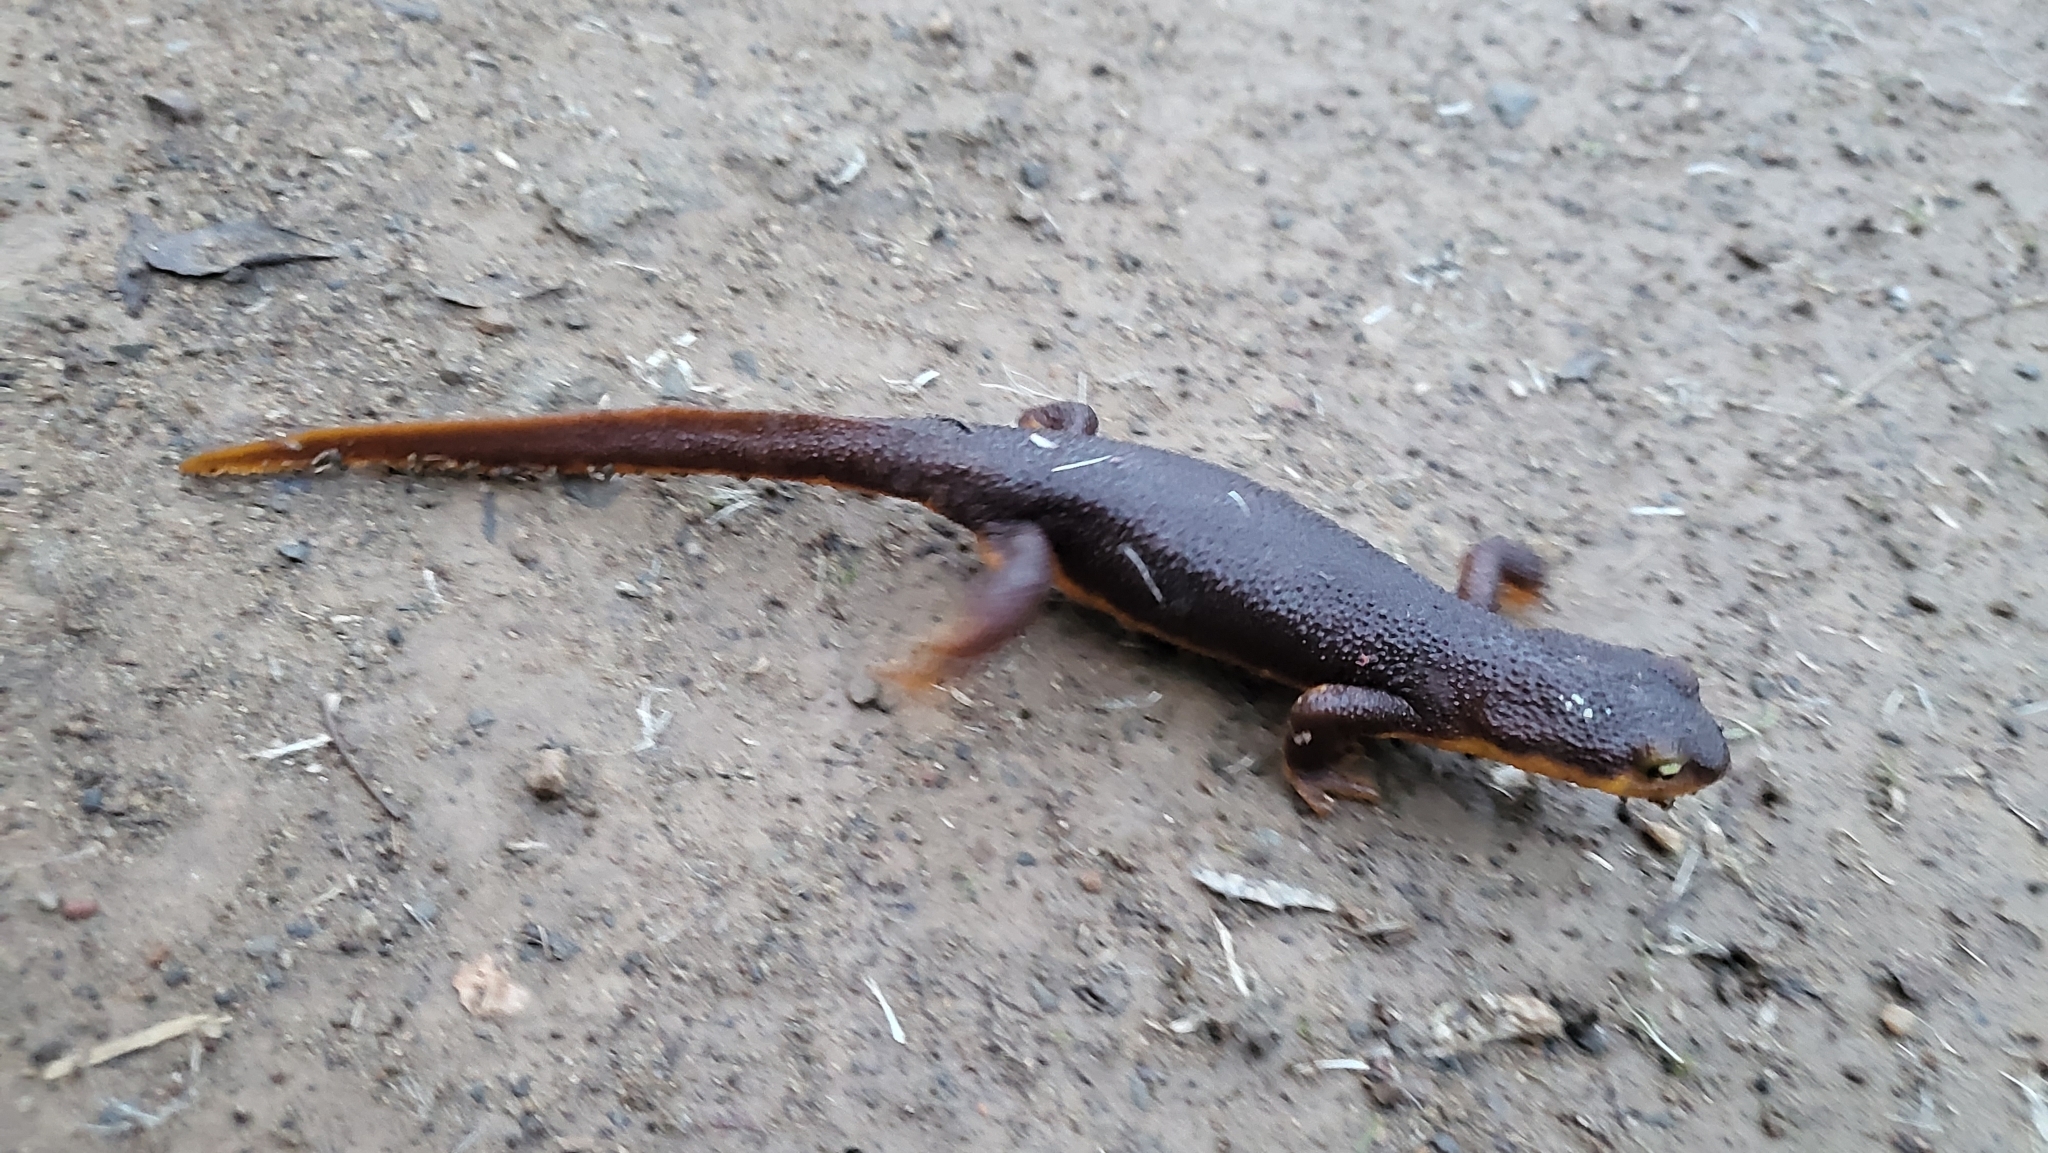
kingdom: Animalia
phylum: Chordata
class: Amphibia
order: Caudata
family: Salamandridae
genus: Taricha
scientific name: Taricha torosa
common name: California newt
